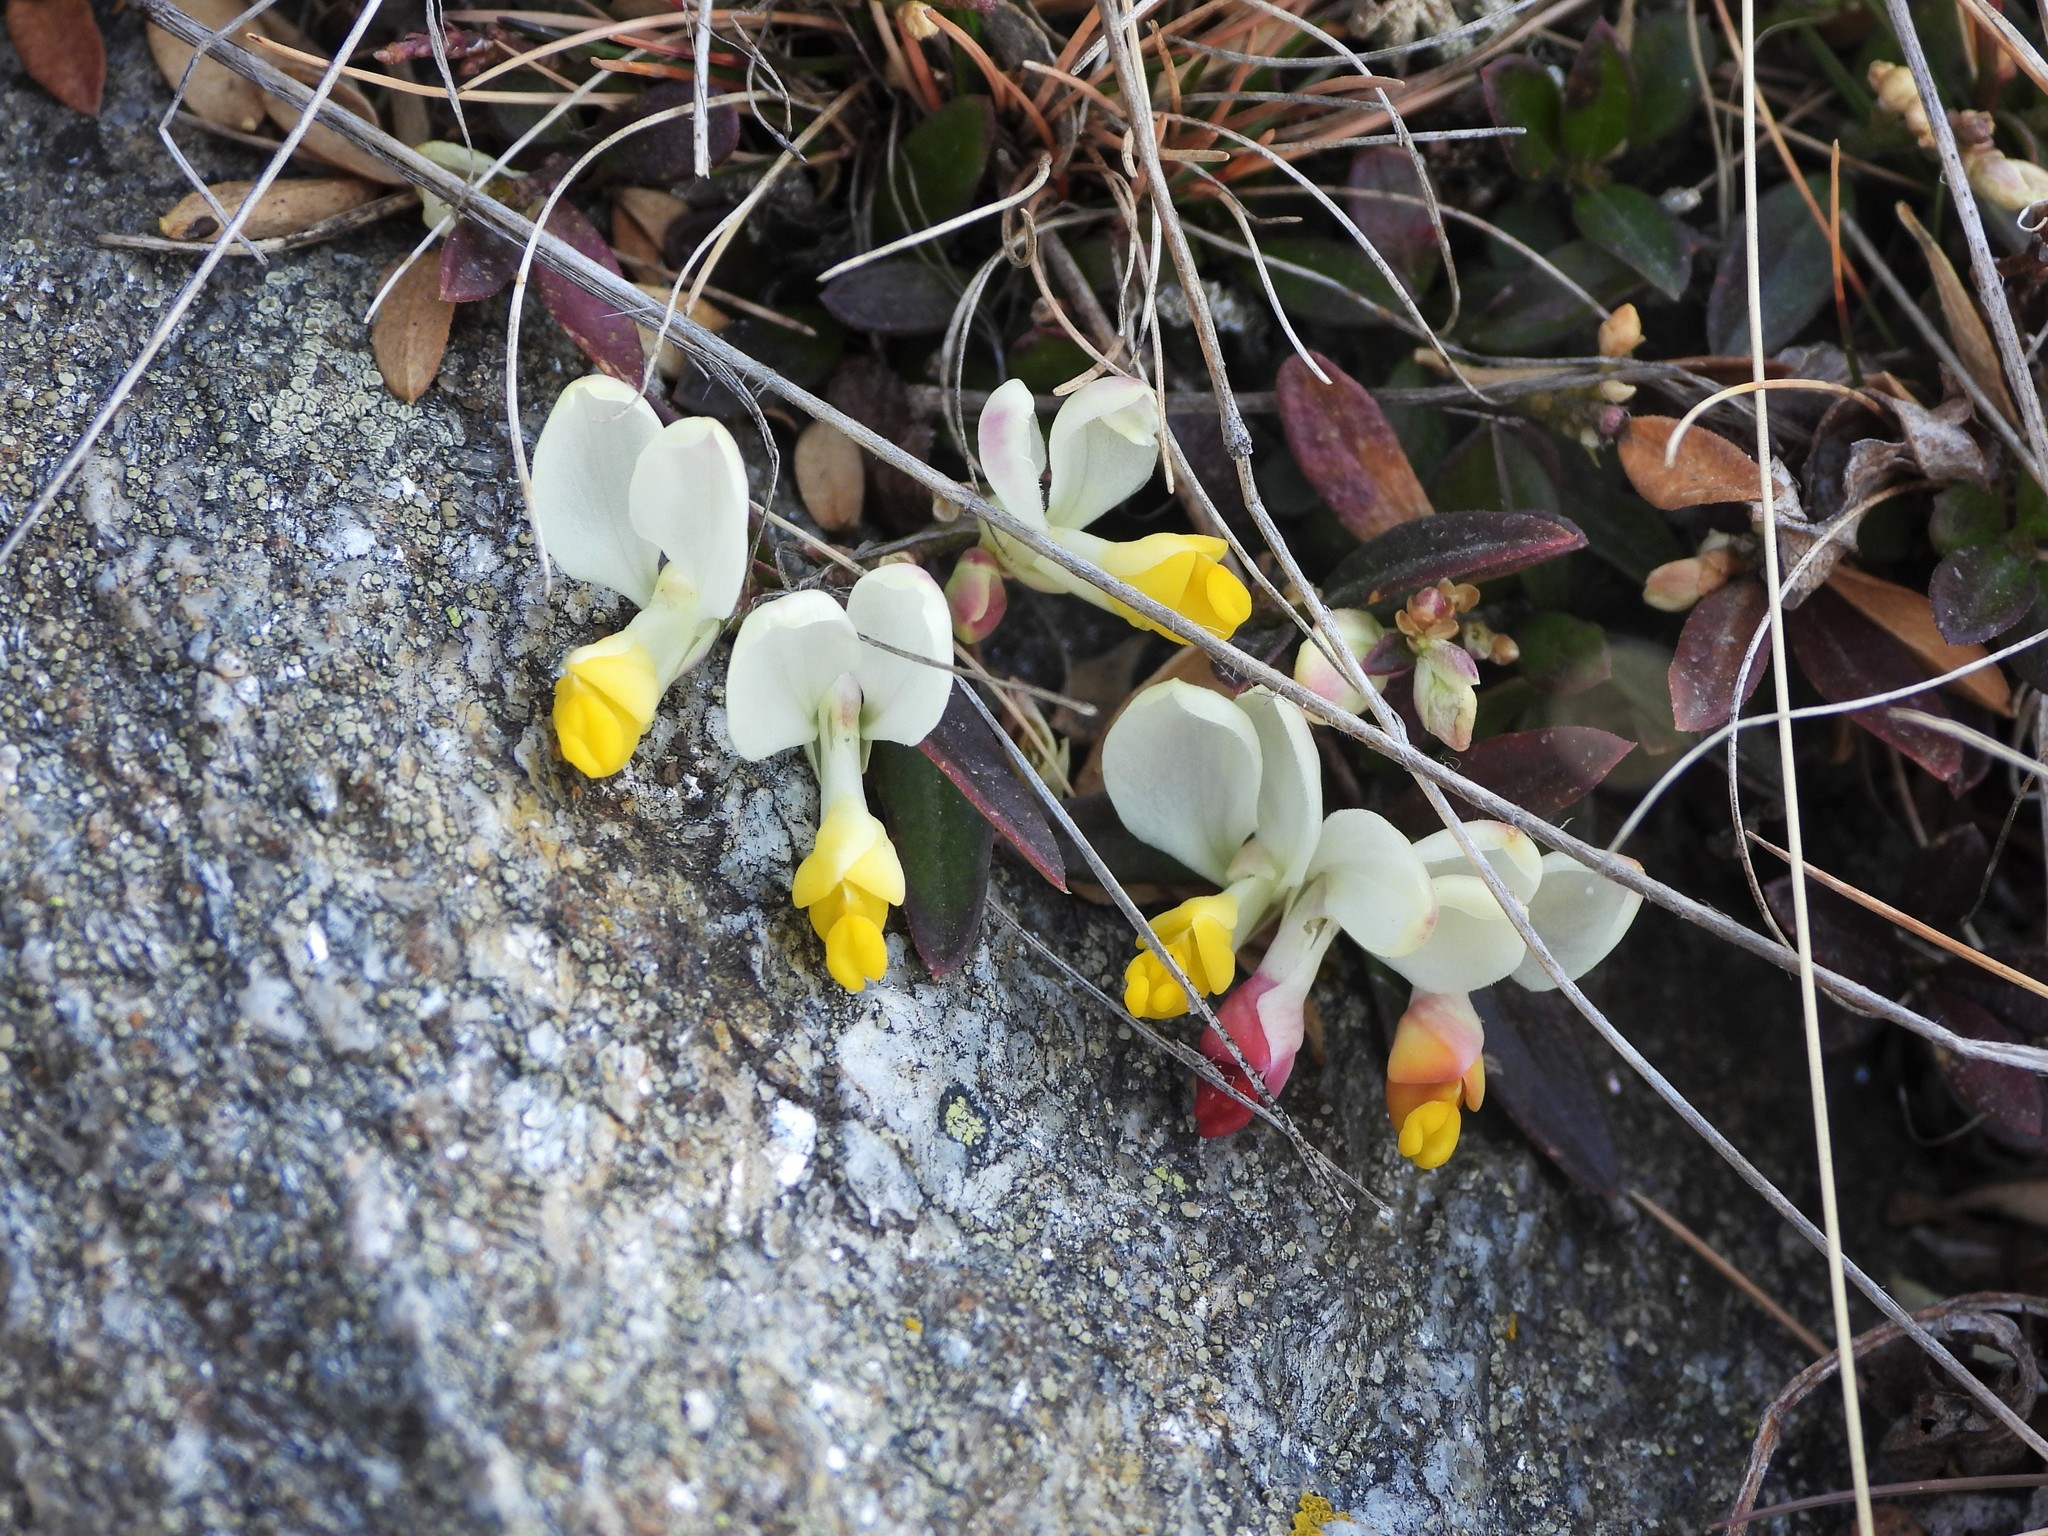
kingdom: Plantae
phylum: Tracheophyta
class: Magnoliopsida
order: Fabales
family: Polygalaceae
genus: Polygaloides
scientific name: Polygaloides chamaebuxus
